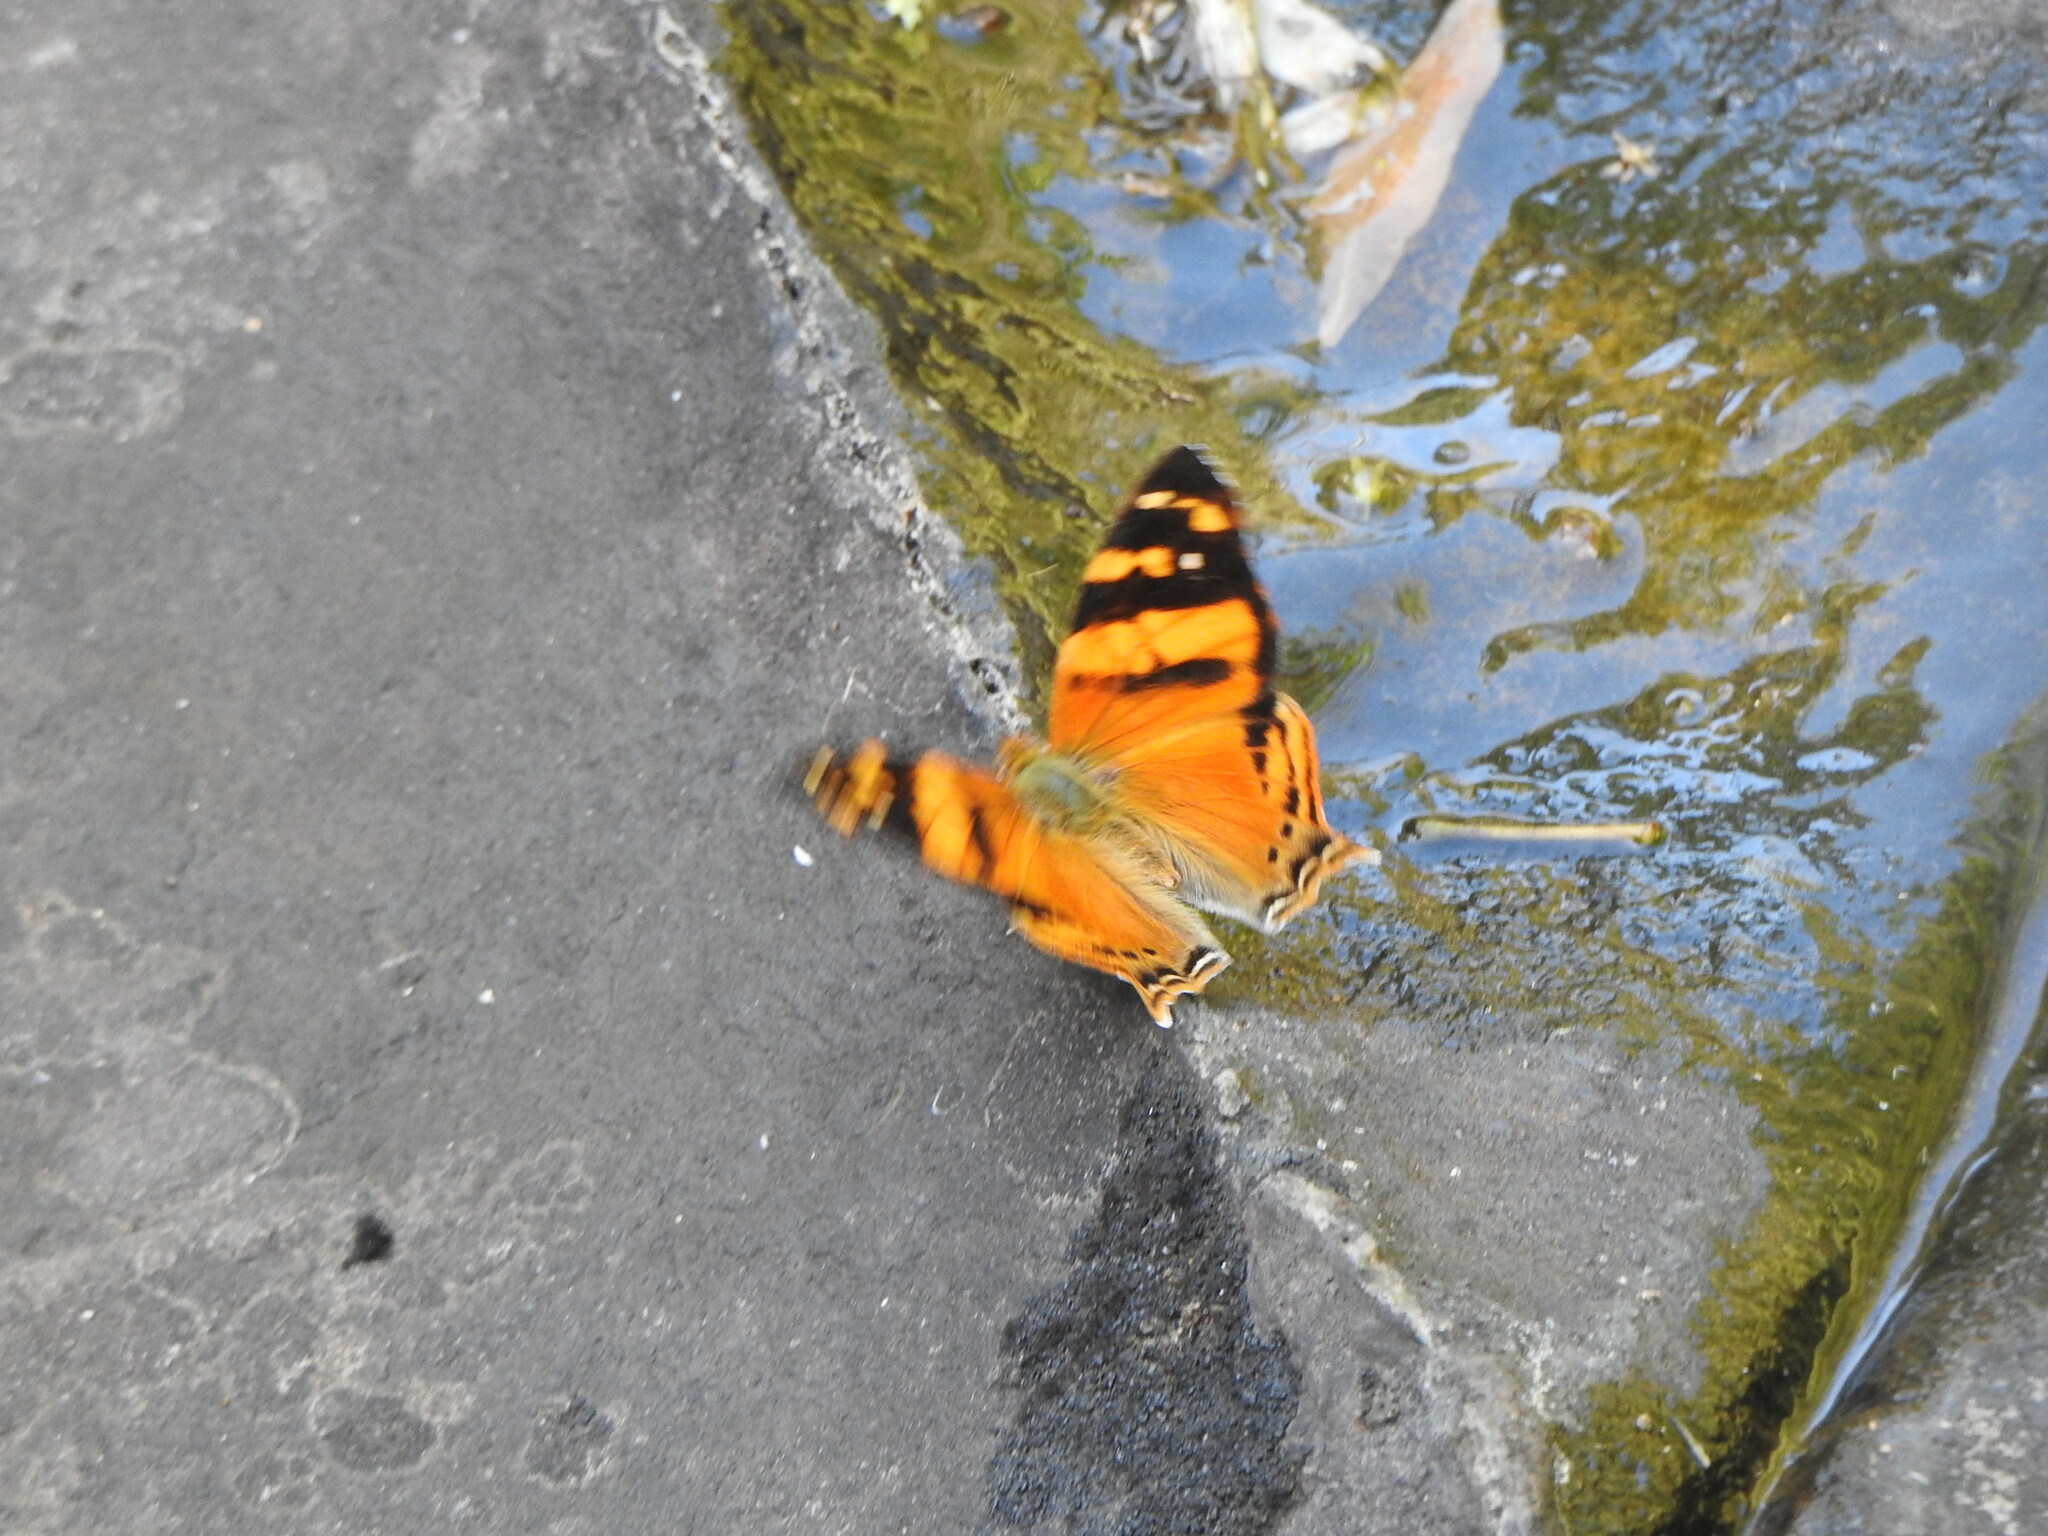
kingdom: Animalia
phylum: Arthropoda
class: Insecta
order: Lepidoptera
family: Nymphalidae
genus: Hypanartia
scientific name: Hypanartia lethe
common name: Orange mapwing
